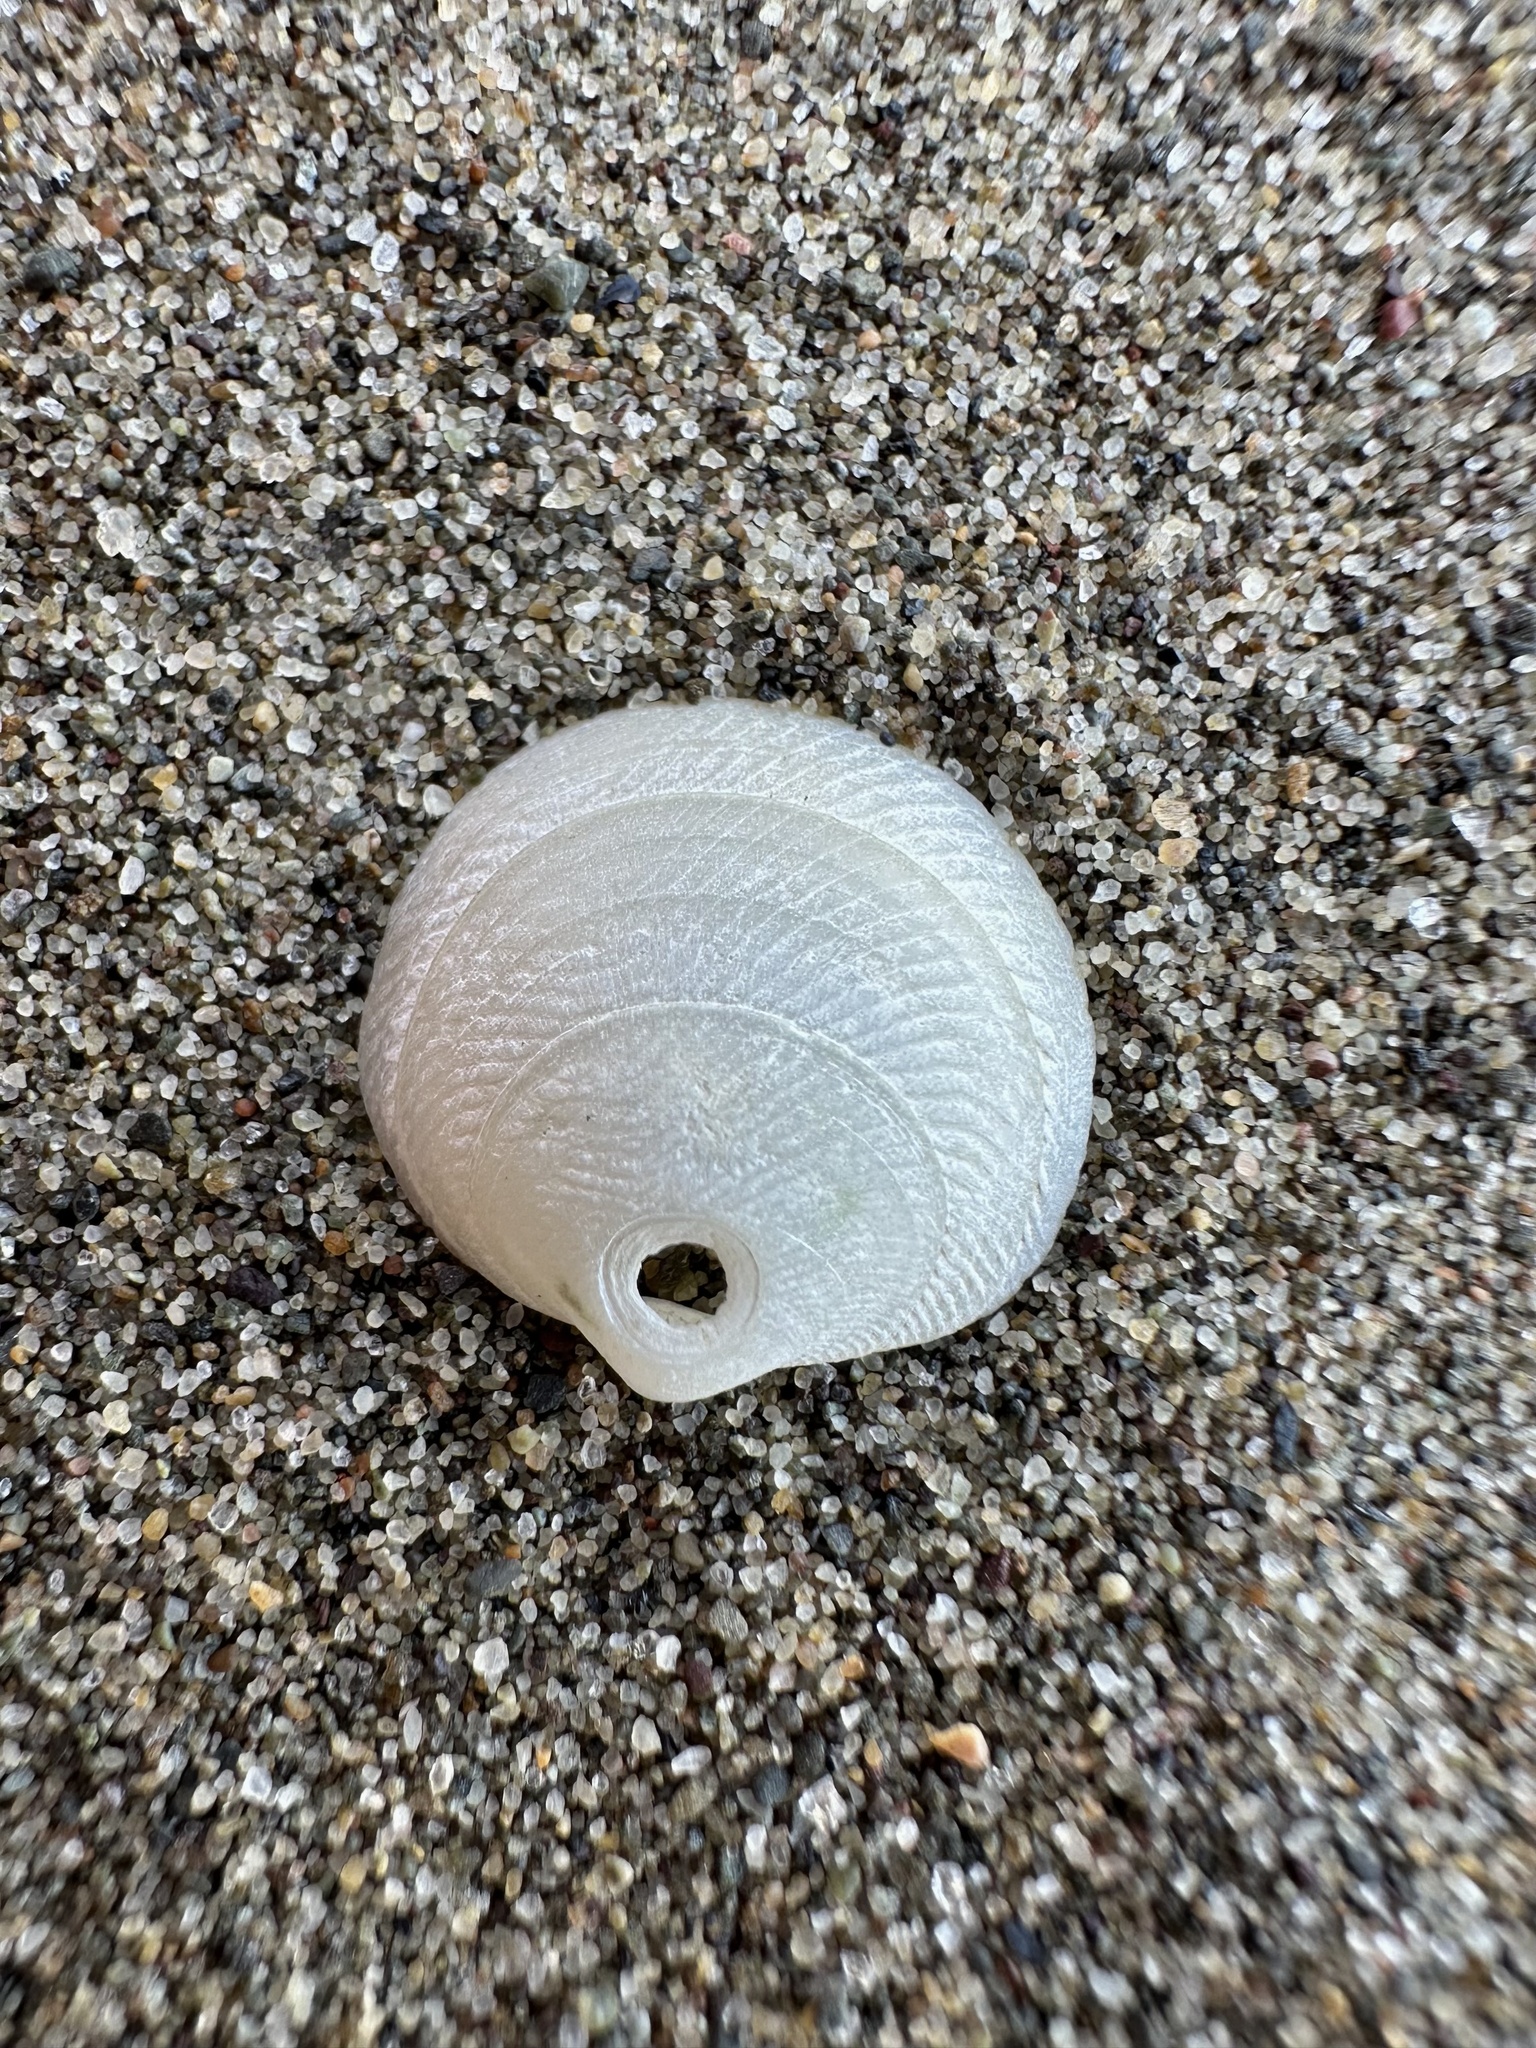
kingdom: Animalia
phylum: Mollusca
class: Bivalvia
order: Lucinida
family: Lucinidae
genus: Divalinga
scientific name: Divalinga quadrisulcata
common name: Cross-hatched lucine
